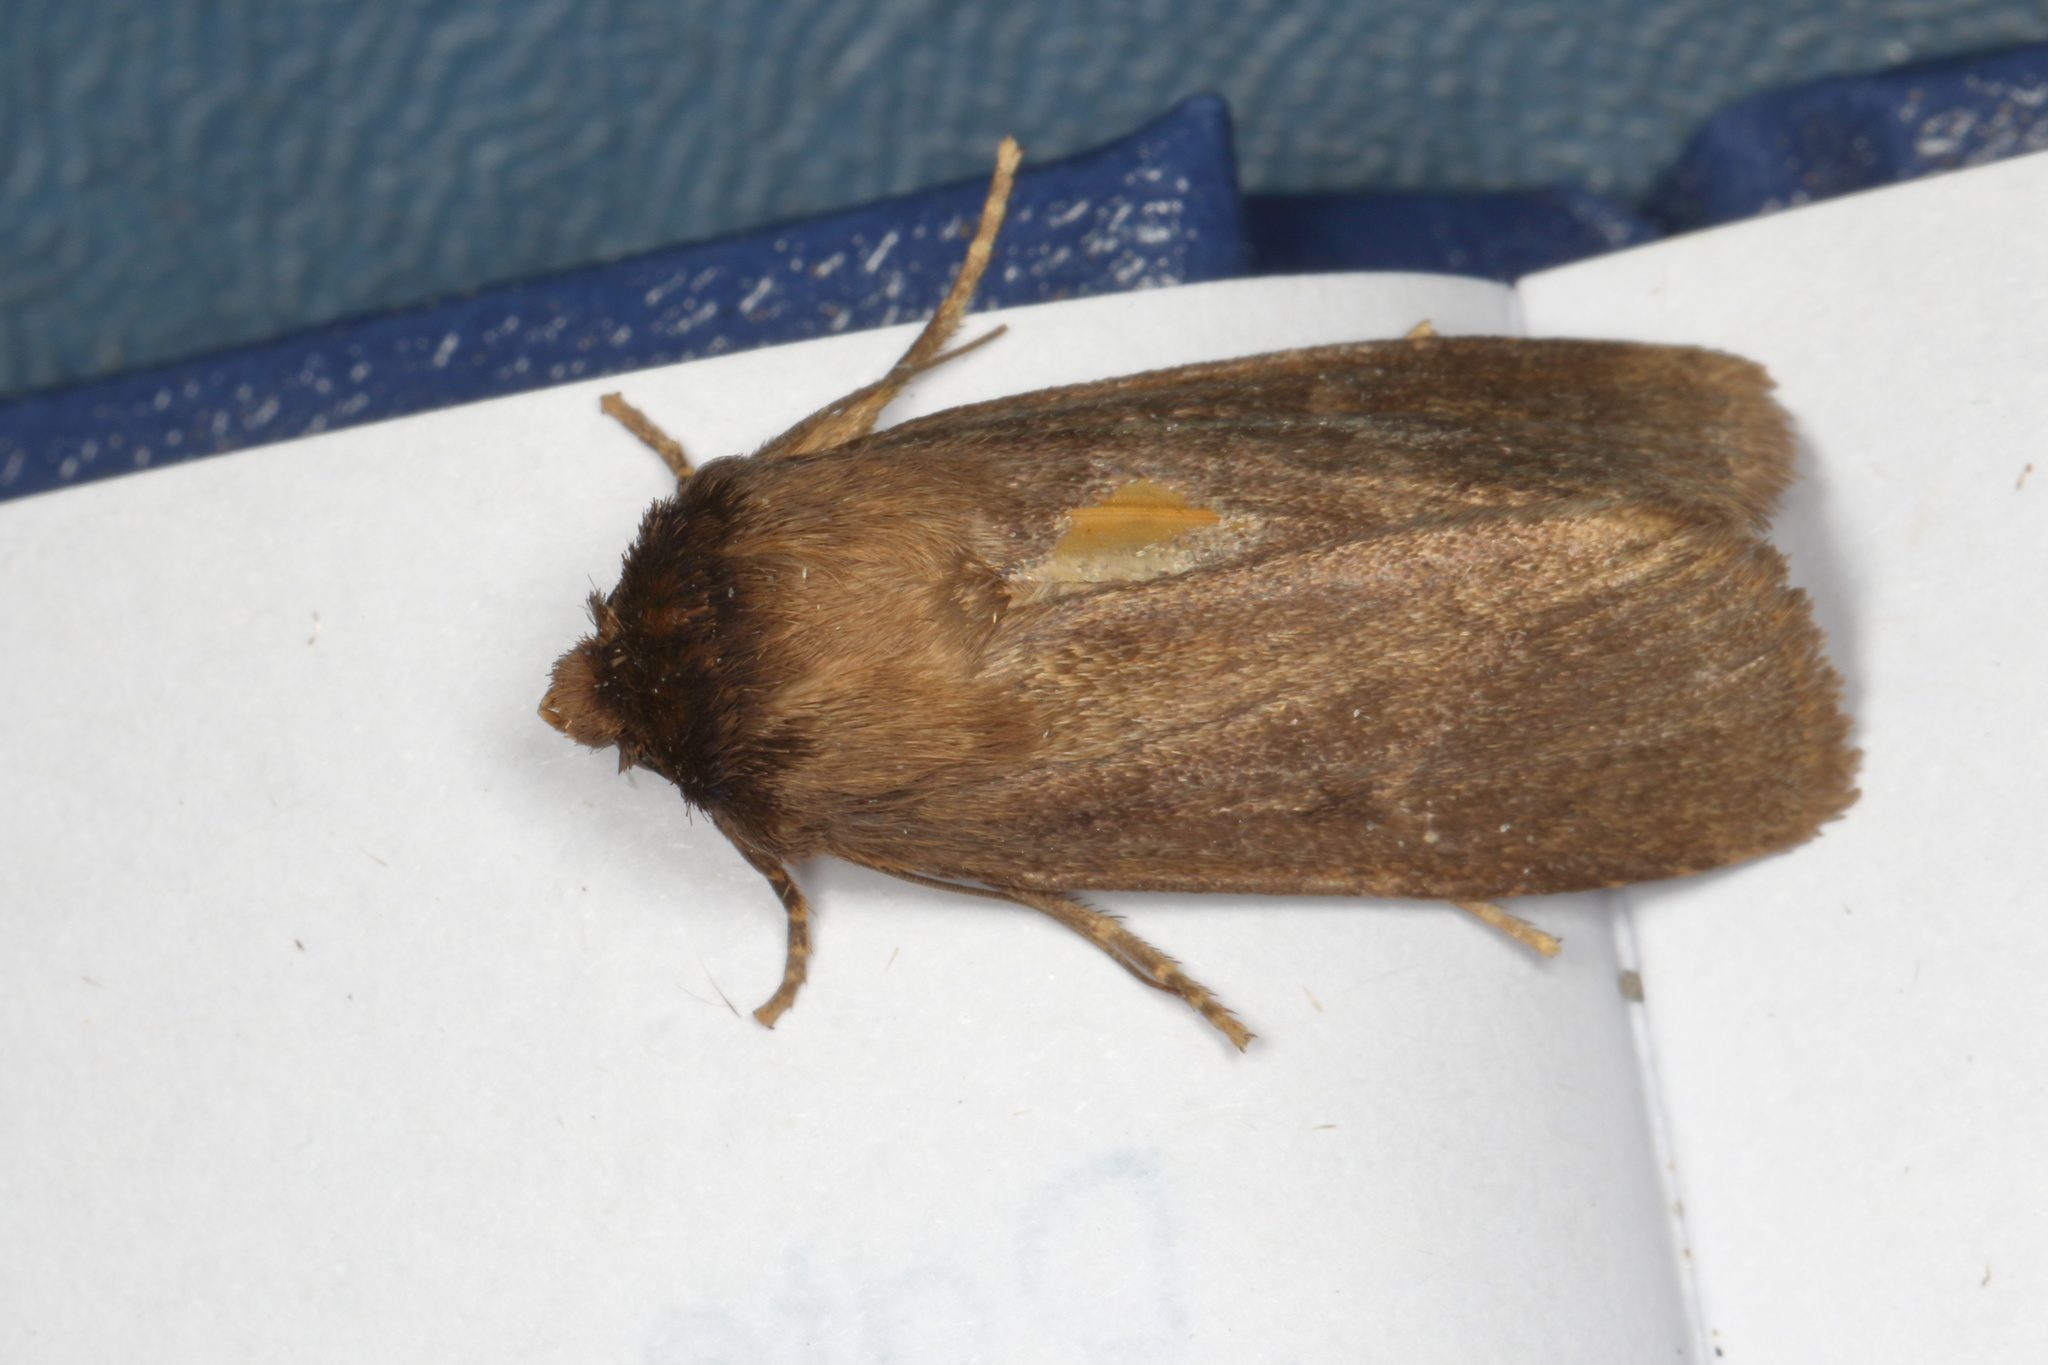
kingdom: Animalia
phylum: Arthropoda
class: Insecta
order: Lepidoptera
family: Noctuidae
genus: Bityla
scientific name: Bityla defigurata
